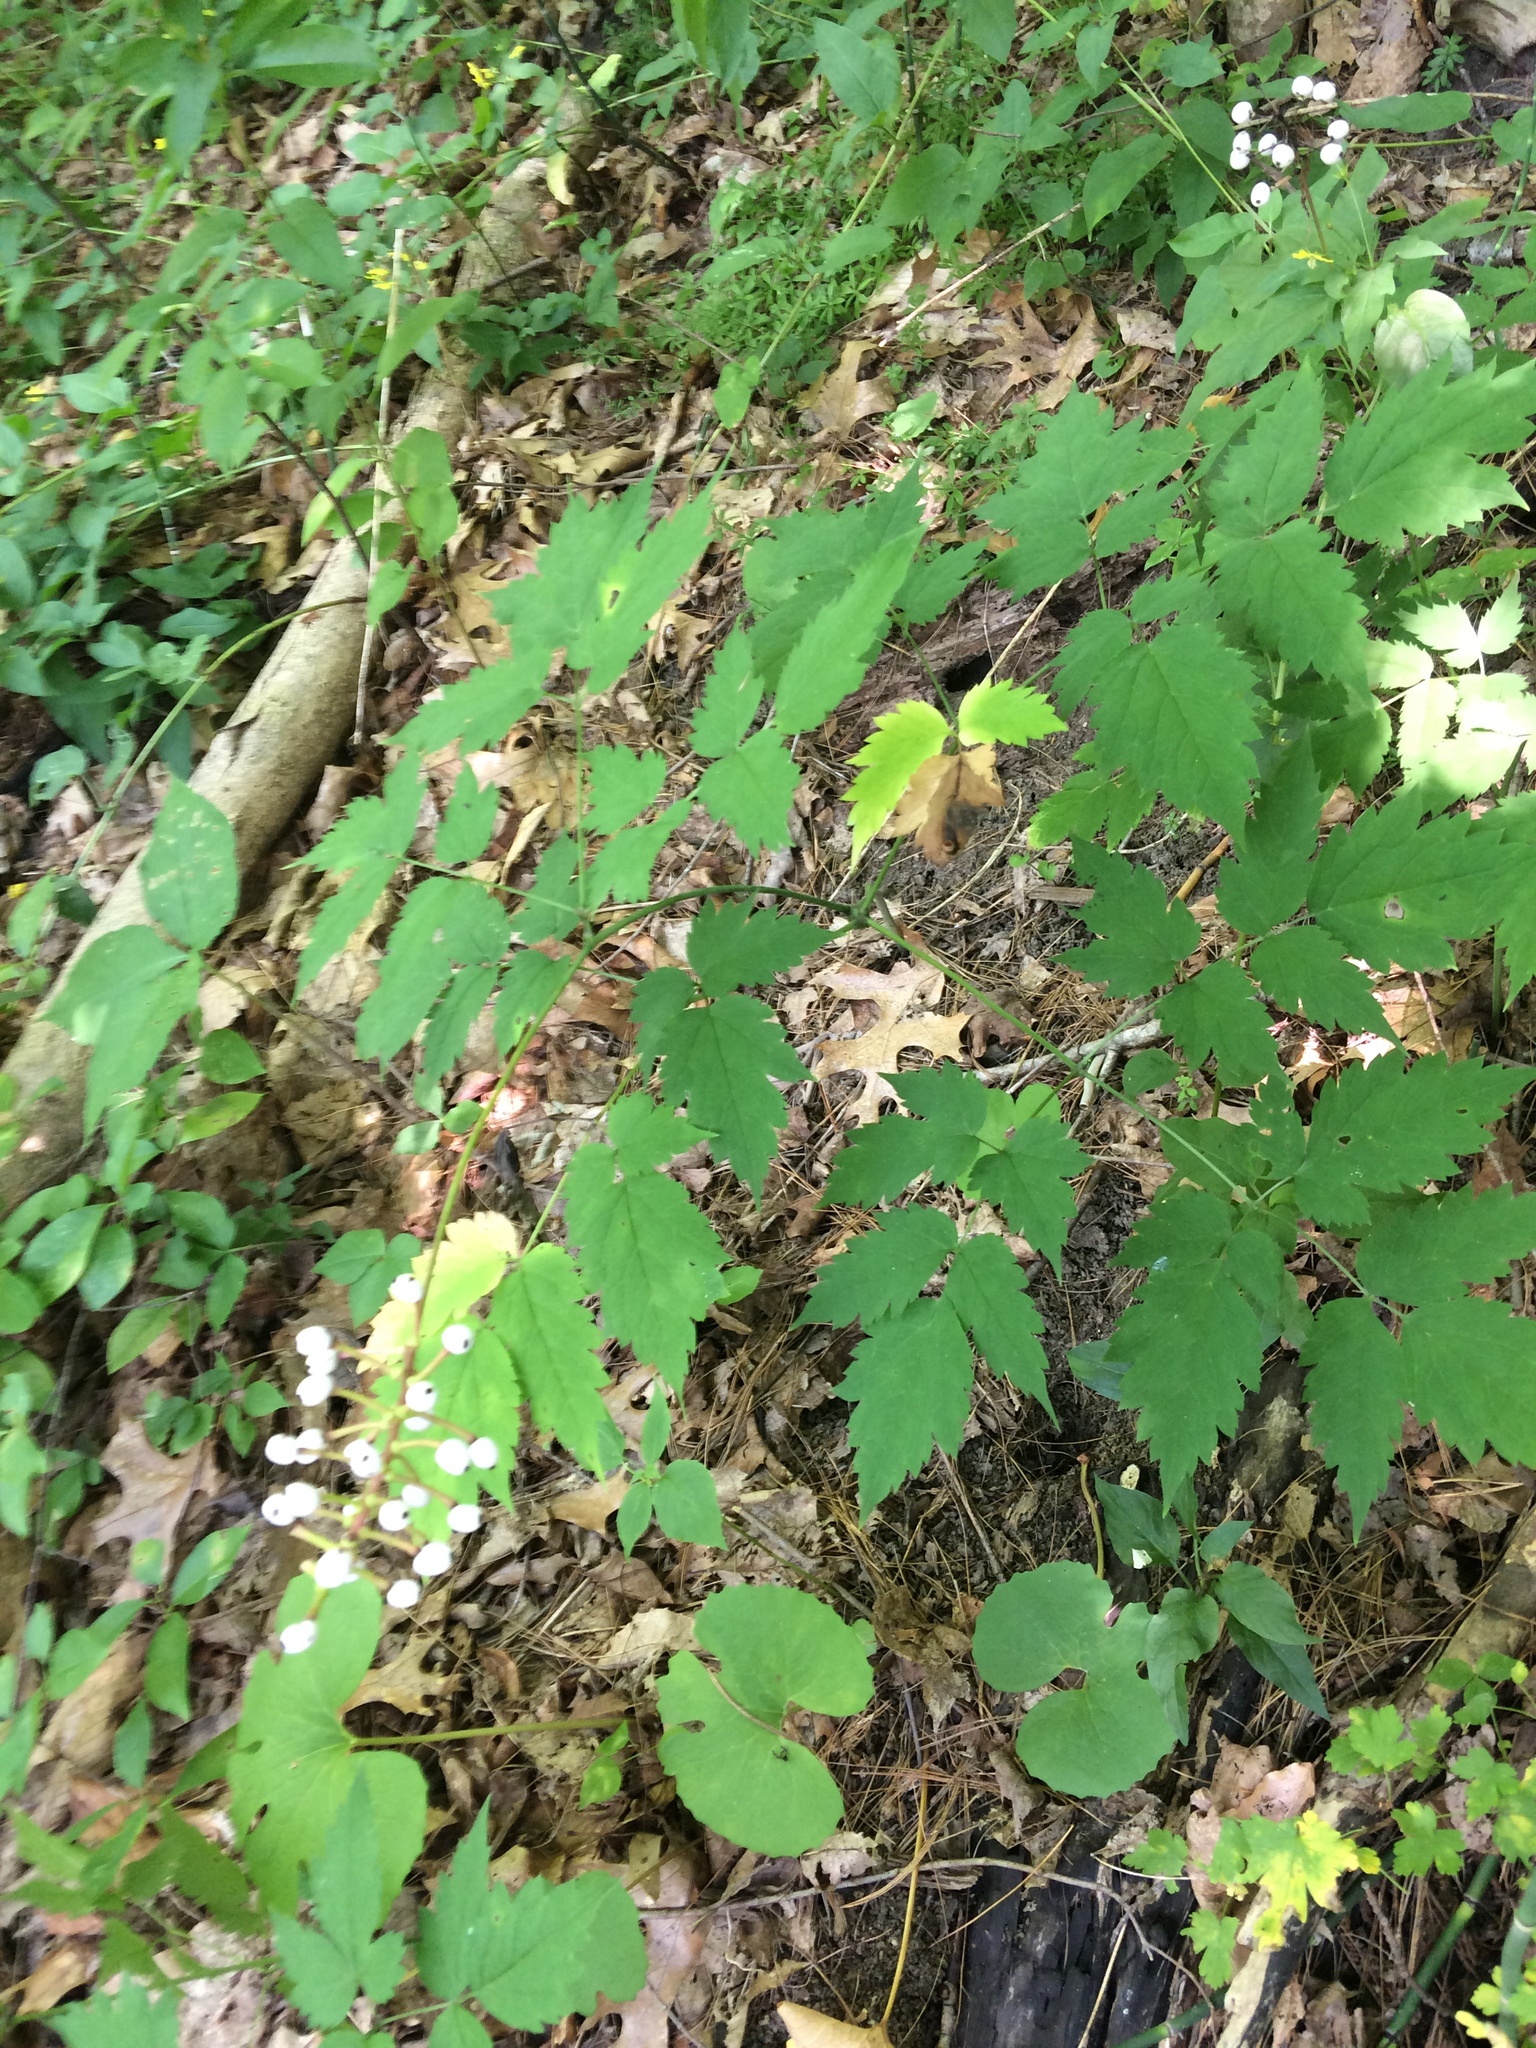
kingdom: Plantae
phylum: Tracheophyta
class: Magnoliopsida
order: Ranunculales
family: Ranunculaceae
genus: Actaea
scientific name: Actaea pachypoda
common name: Doll's-eyes
